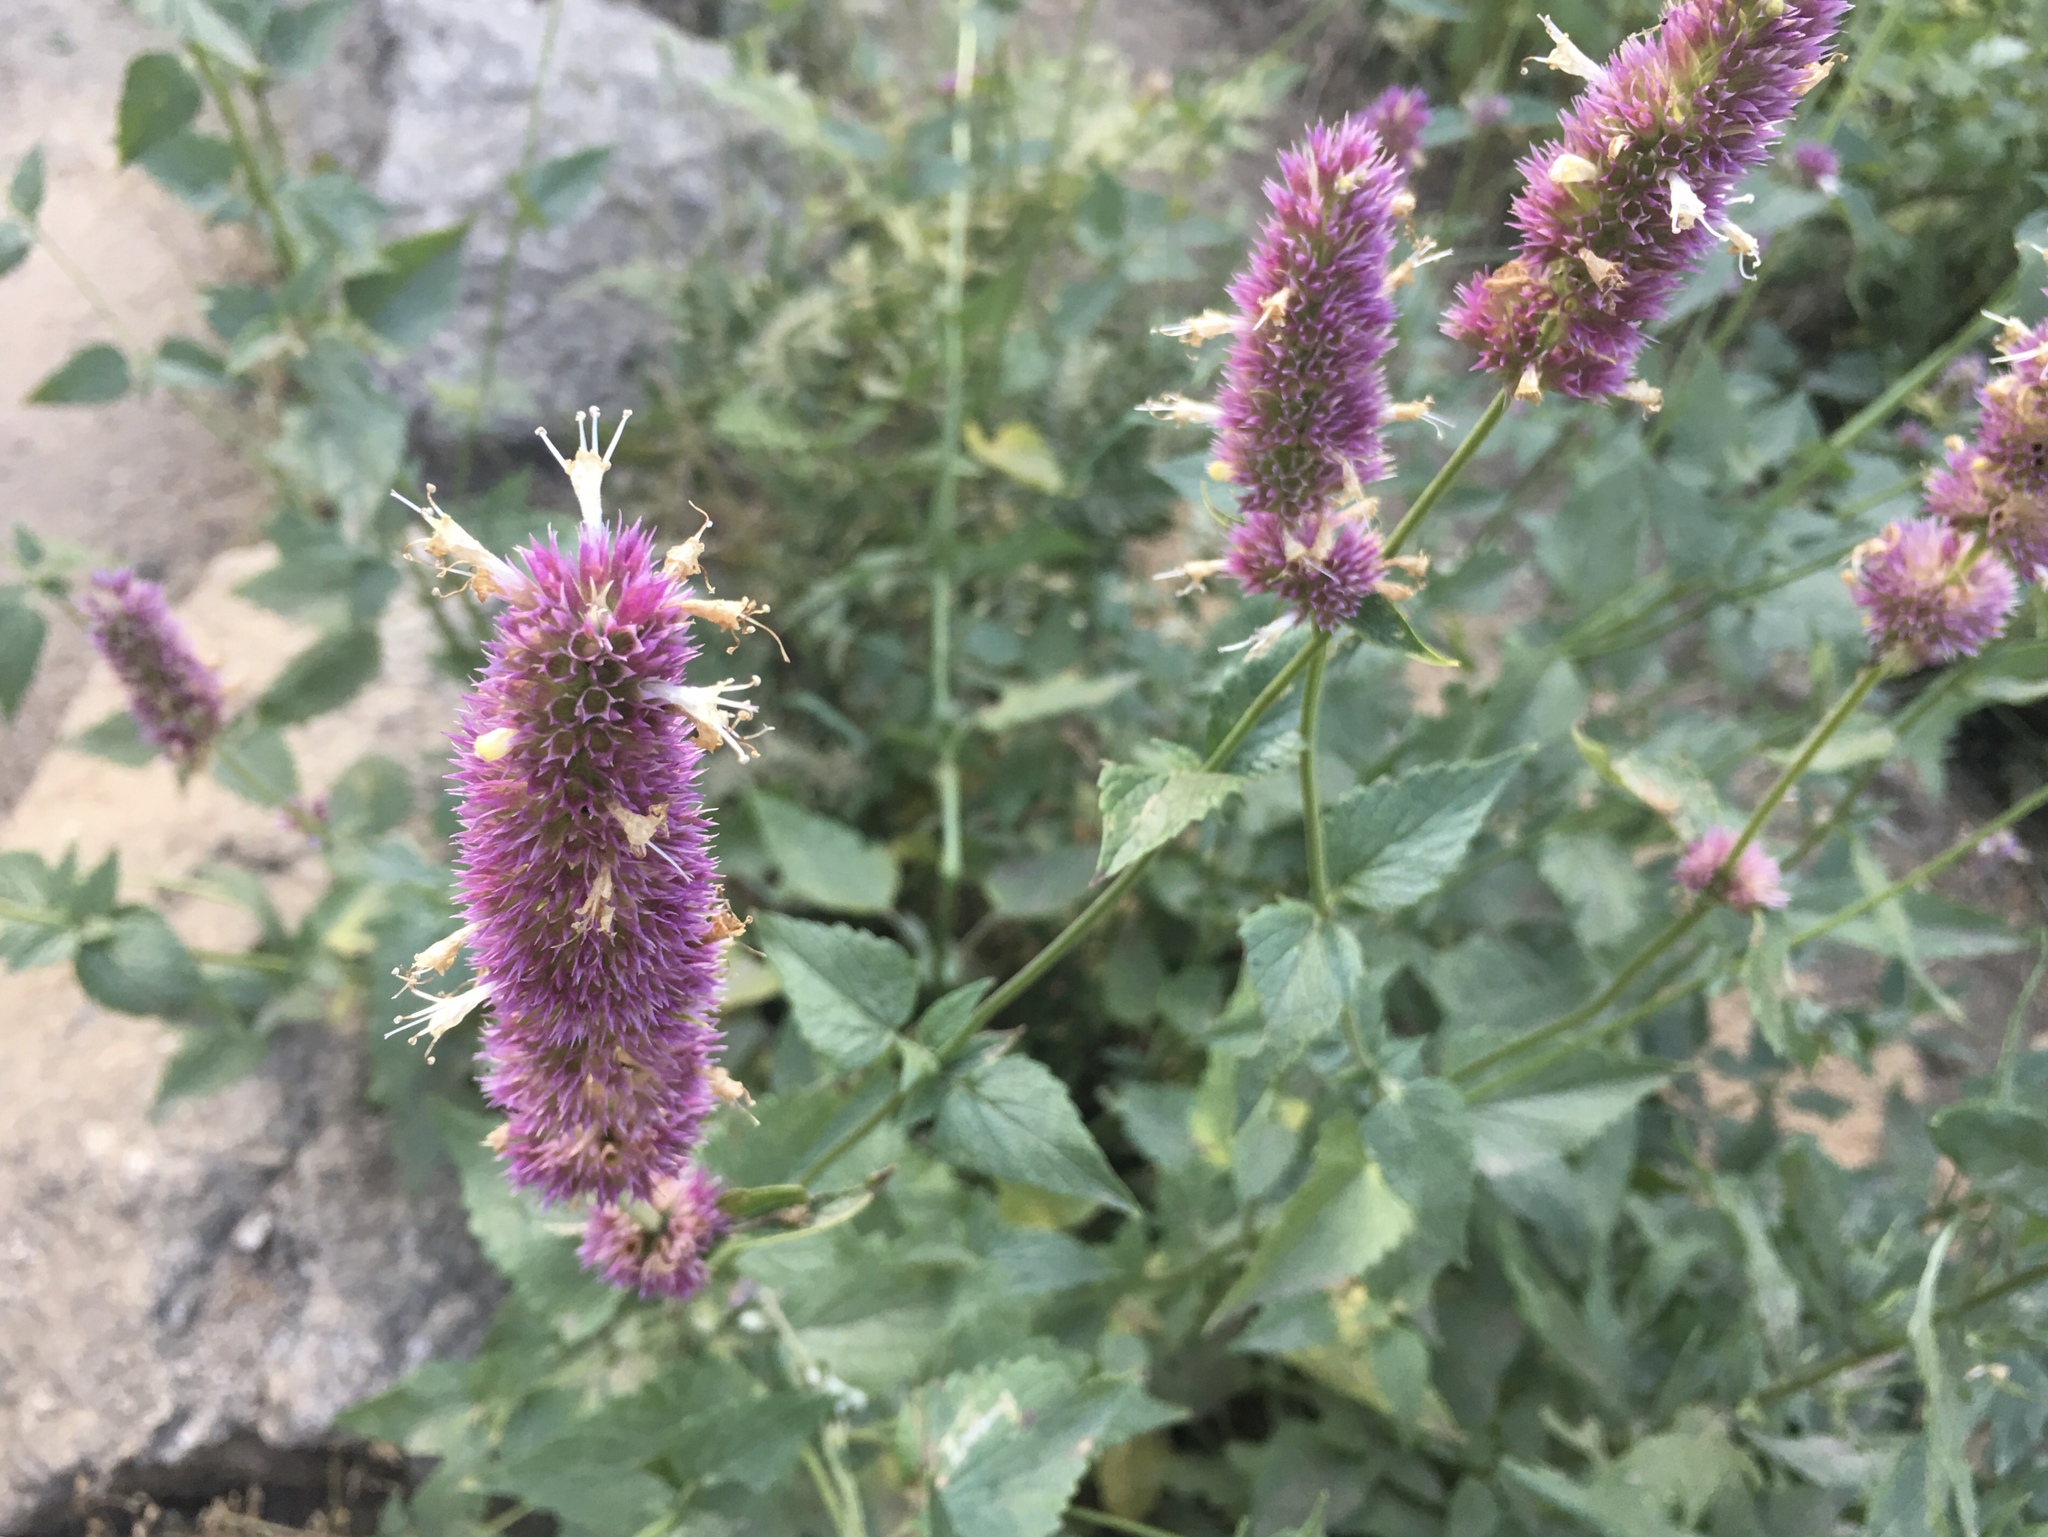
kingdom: Plantae
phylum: Tracheophyta
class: Magnoliopsida
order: Lamiales
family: Lamiaceae
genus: Agastache
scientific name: Agastache urticifolia
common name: Horsemint giant hyssop
